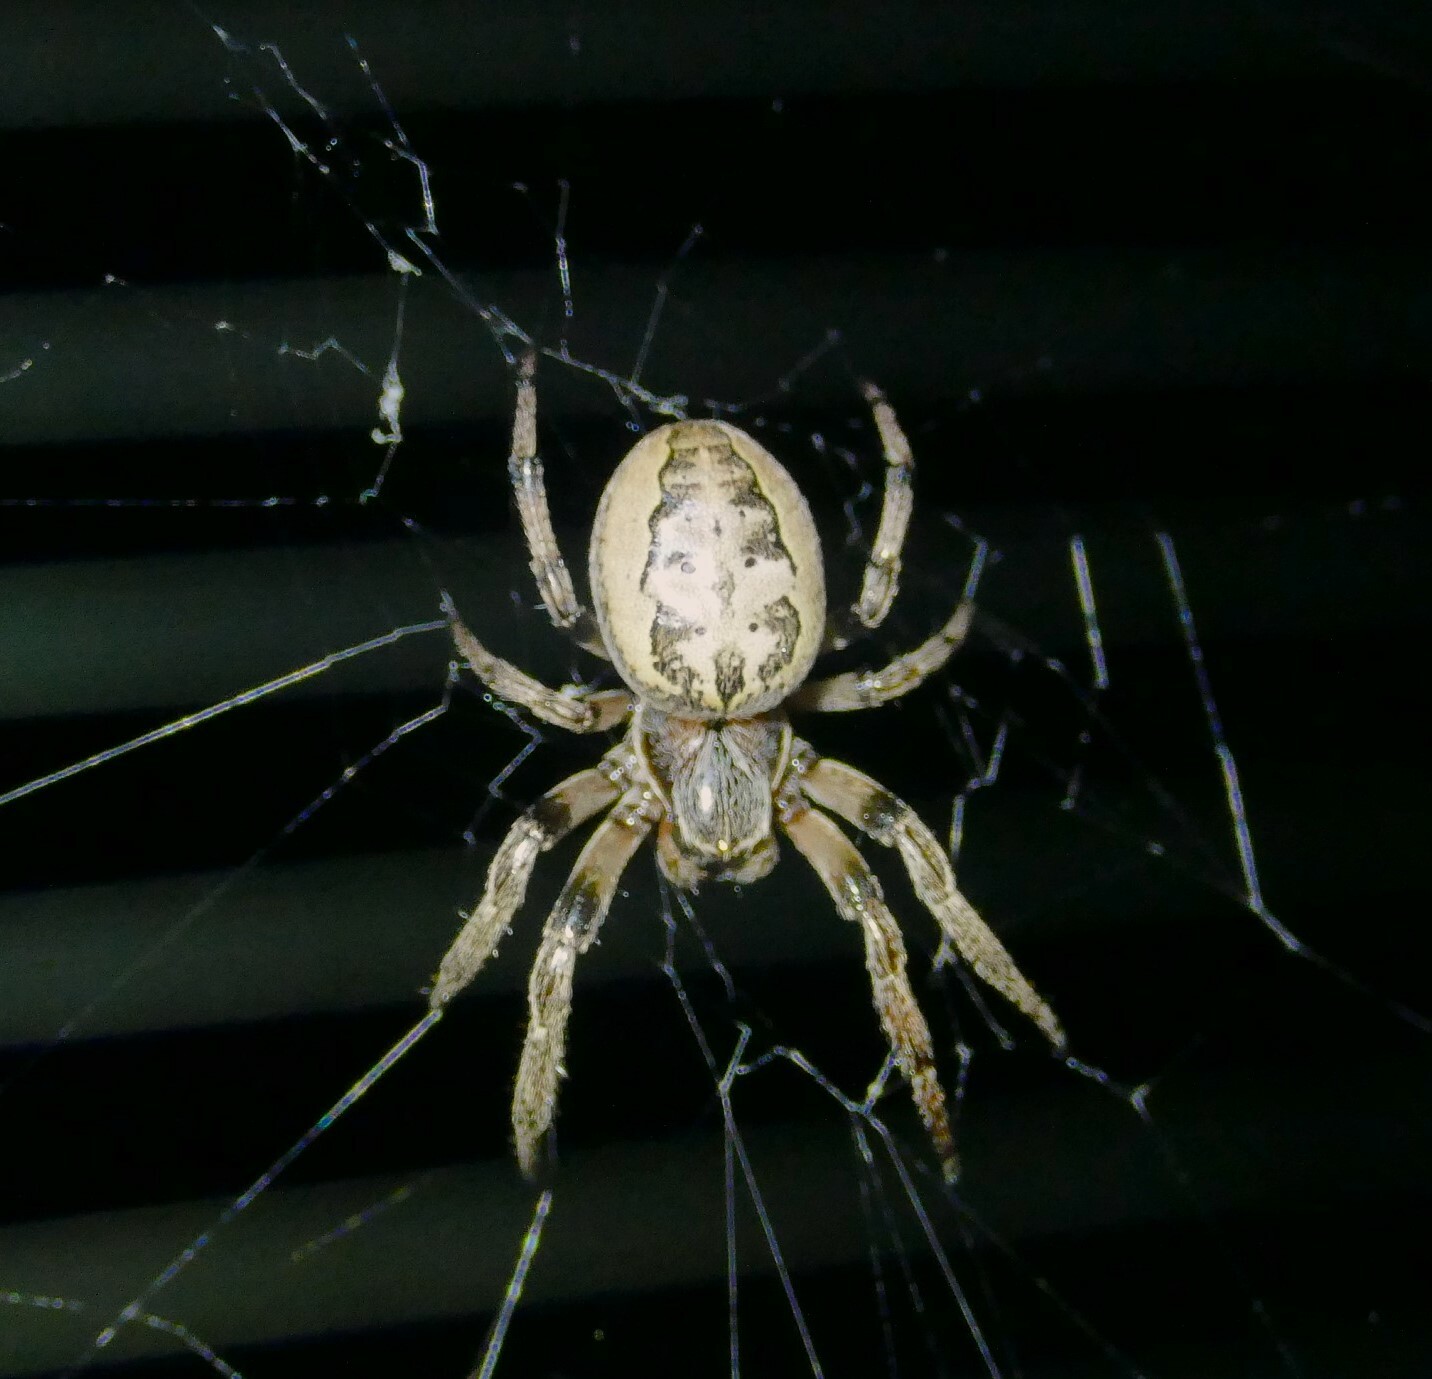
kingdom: Animalia
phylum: Arthropoda
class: Arachnida
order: Araneae
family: Araneidae
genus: Larinioides
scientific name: Larinioides cornutus
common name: Furrow orbweaver
